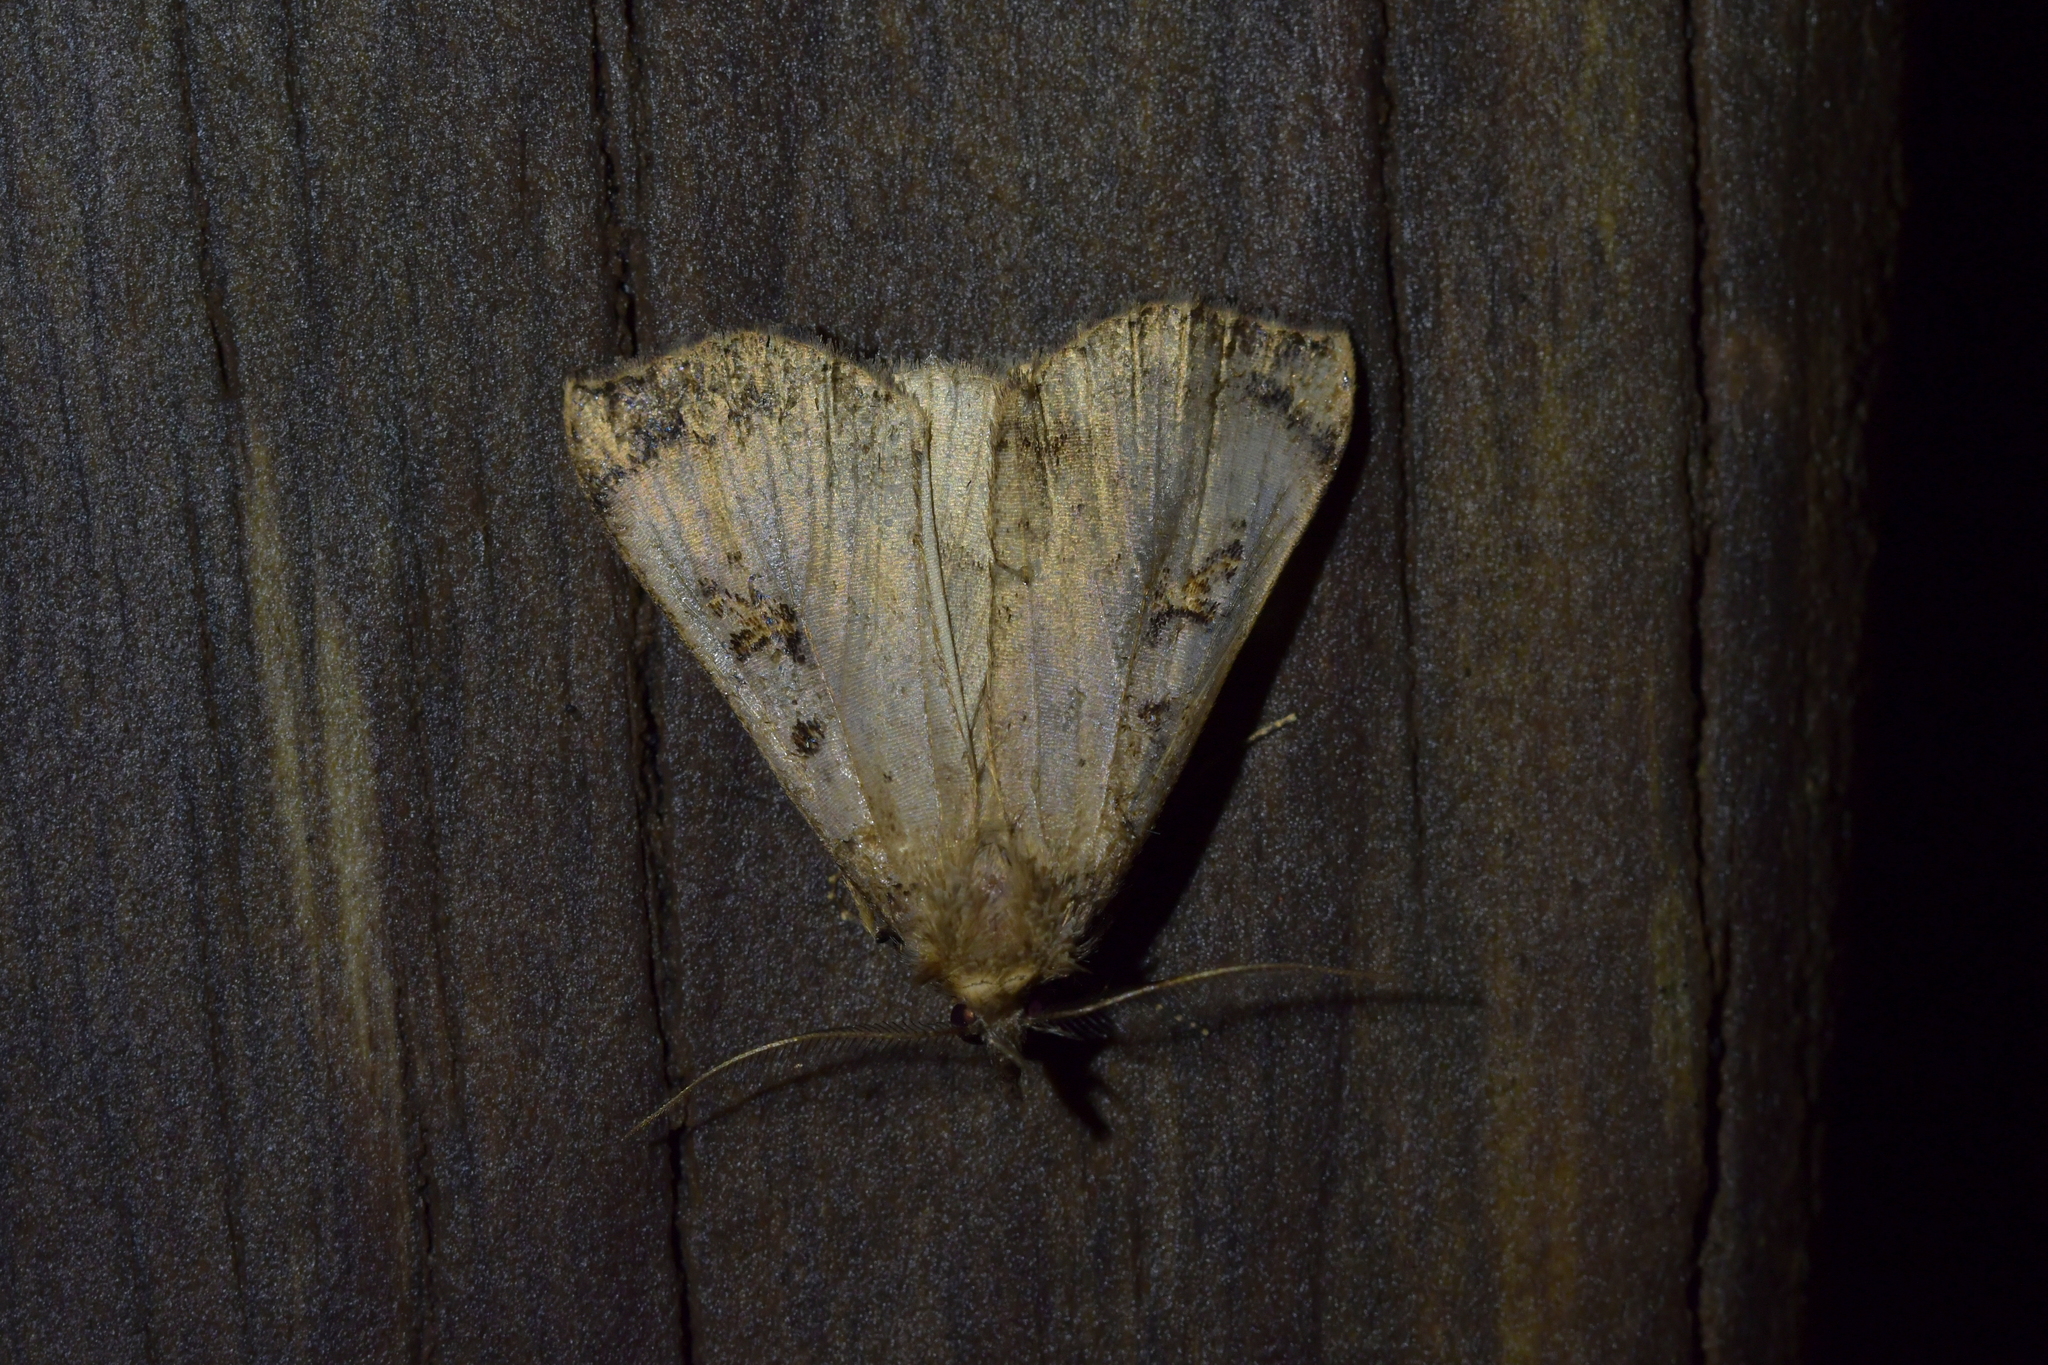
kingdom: Animalia
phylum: Arthropoda
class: Insecta
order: Lepidoptera
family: Erebidae
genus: Rhapsa
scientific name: Rhapsa scotosialis
